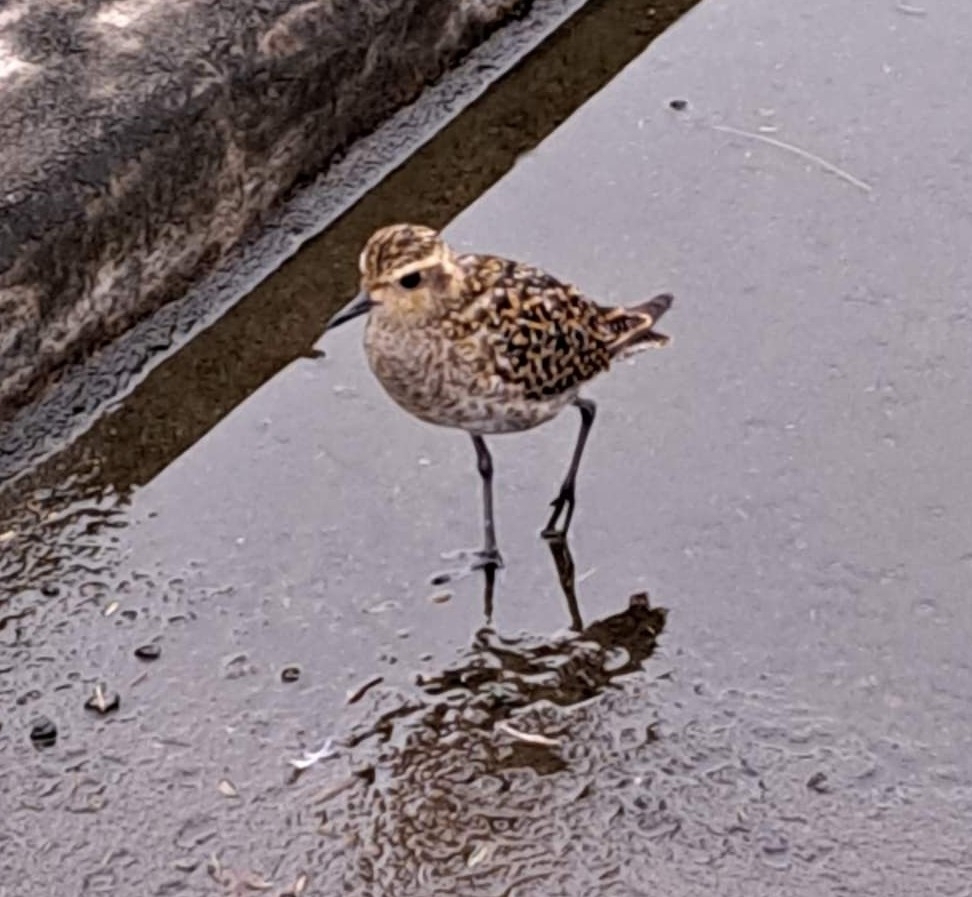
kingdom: Animalia
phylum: Chordata
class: Aves
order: Charadriiformes
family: Charadriidae
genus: Pluvialis
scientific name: Pluvialis fulva
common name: Pacific golden plover
